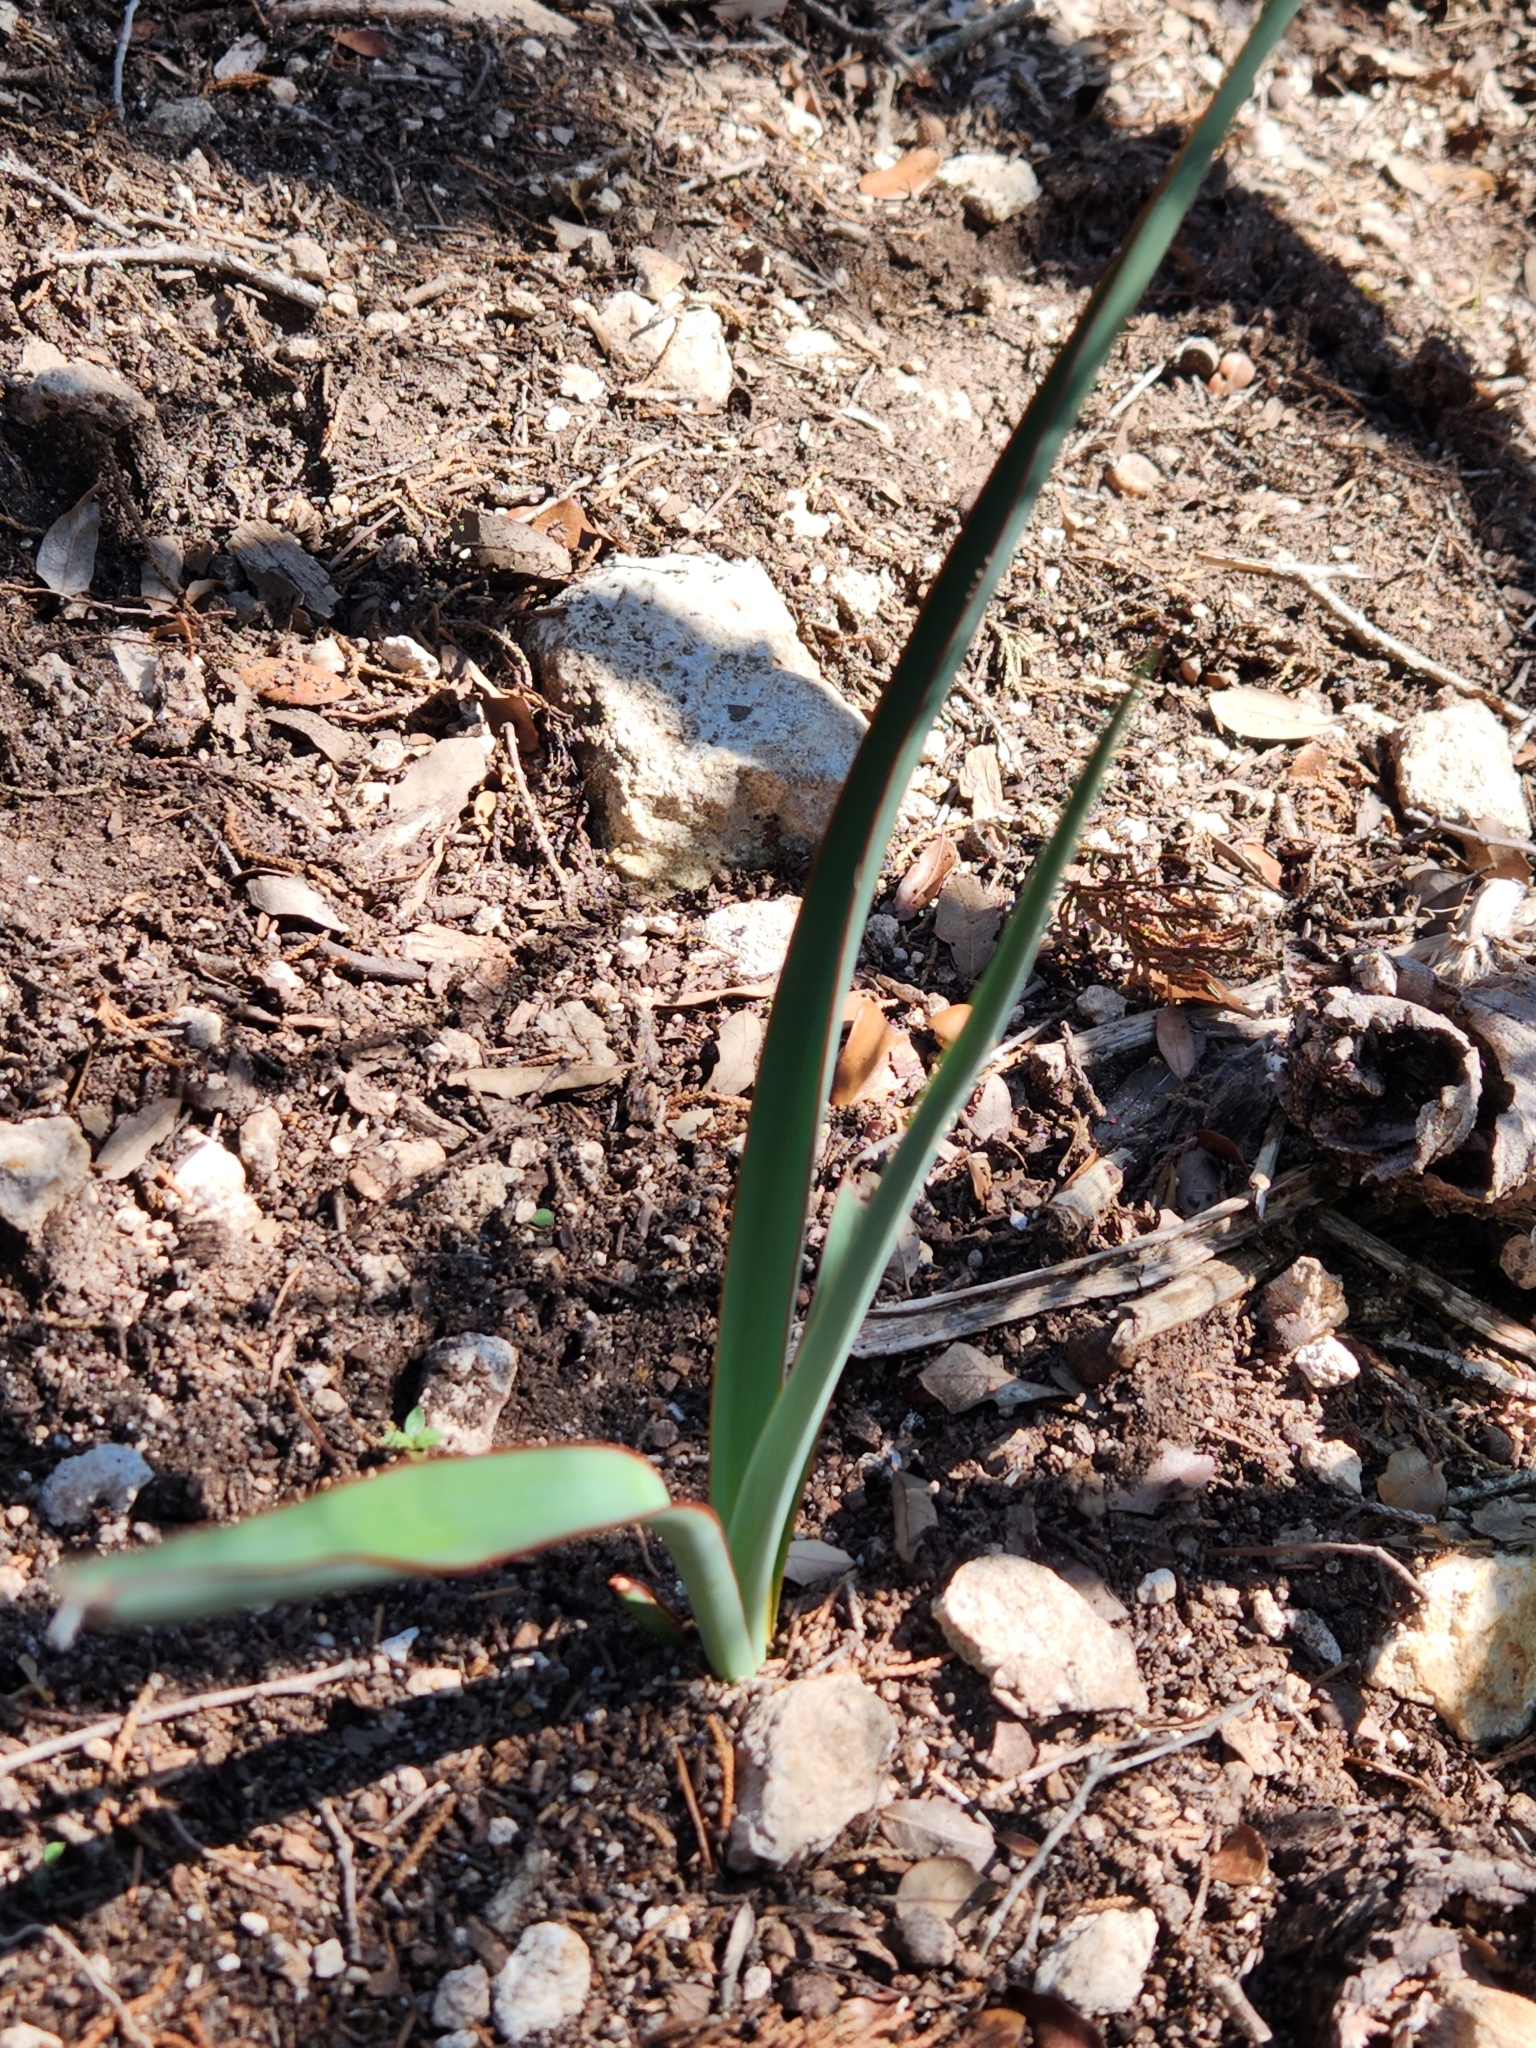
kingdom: Plantae
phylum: Tracheophyta
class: Liliopsida
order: Asparagales
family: Asparagaceae
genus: Yucca
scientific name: Yucca treculiana
